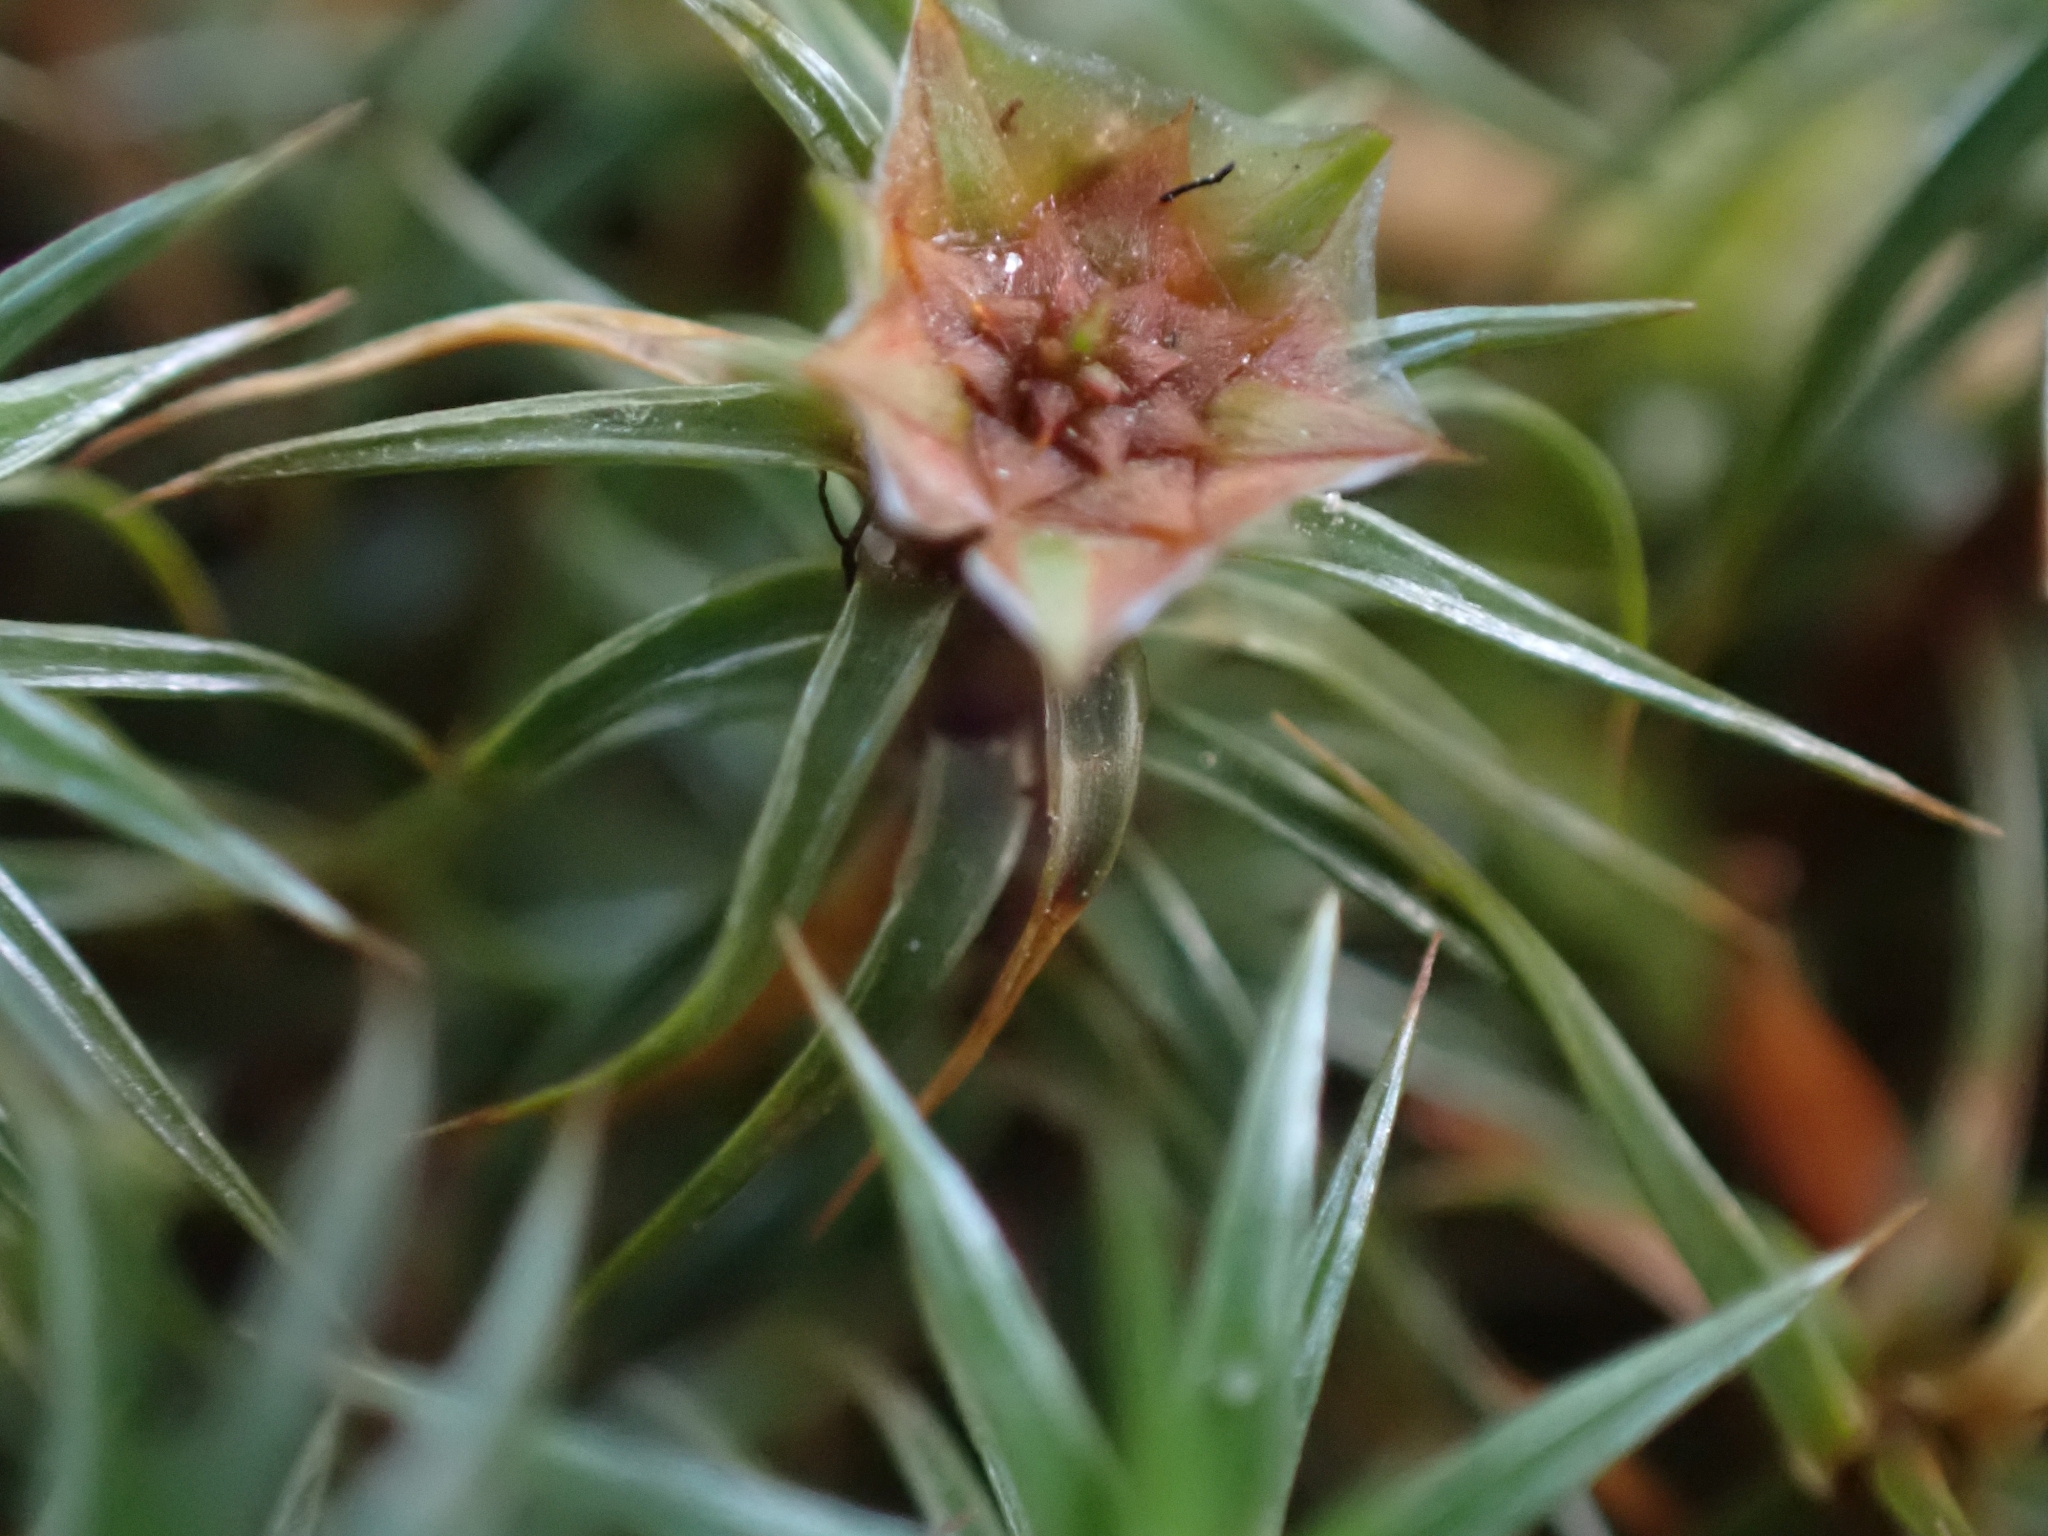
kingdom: Plantae
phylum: Bryophyta
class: Polytrichopsida
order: Polytrichales
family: Polytrichaceae
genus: Polytrichum
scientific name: Polytrichum juniperinum
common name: Juniper haircap moss
